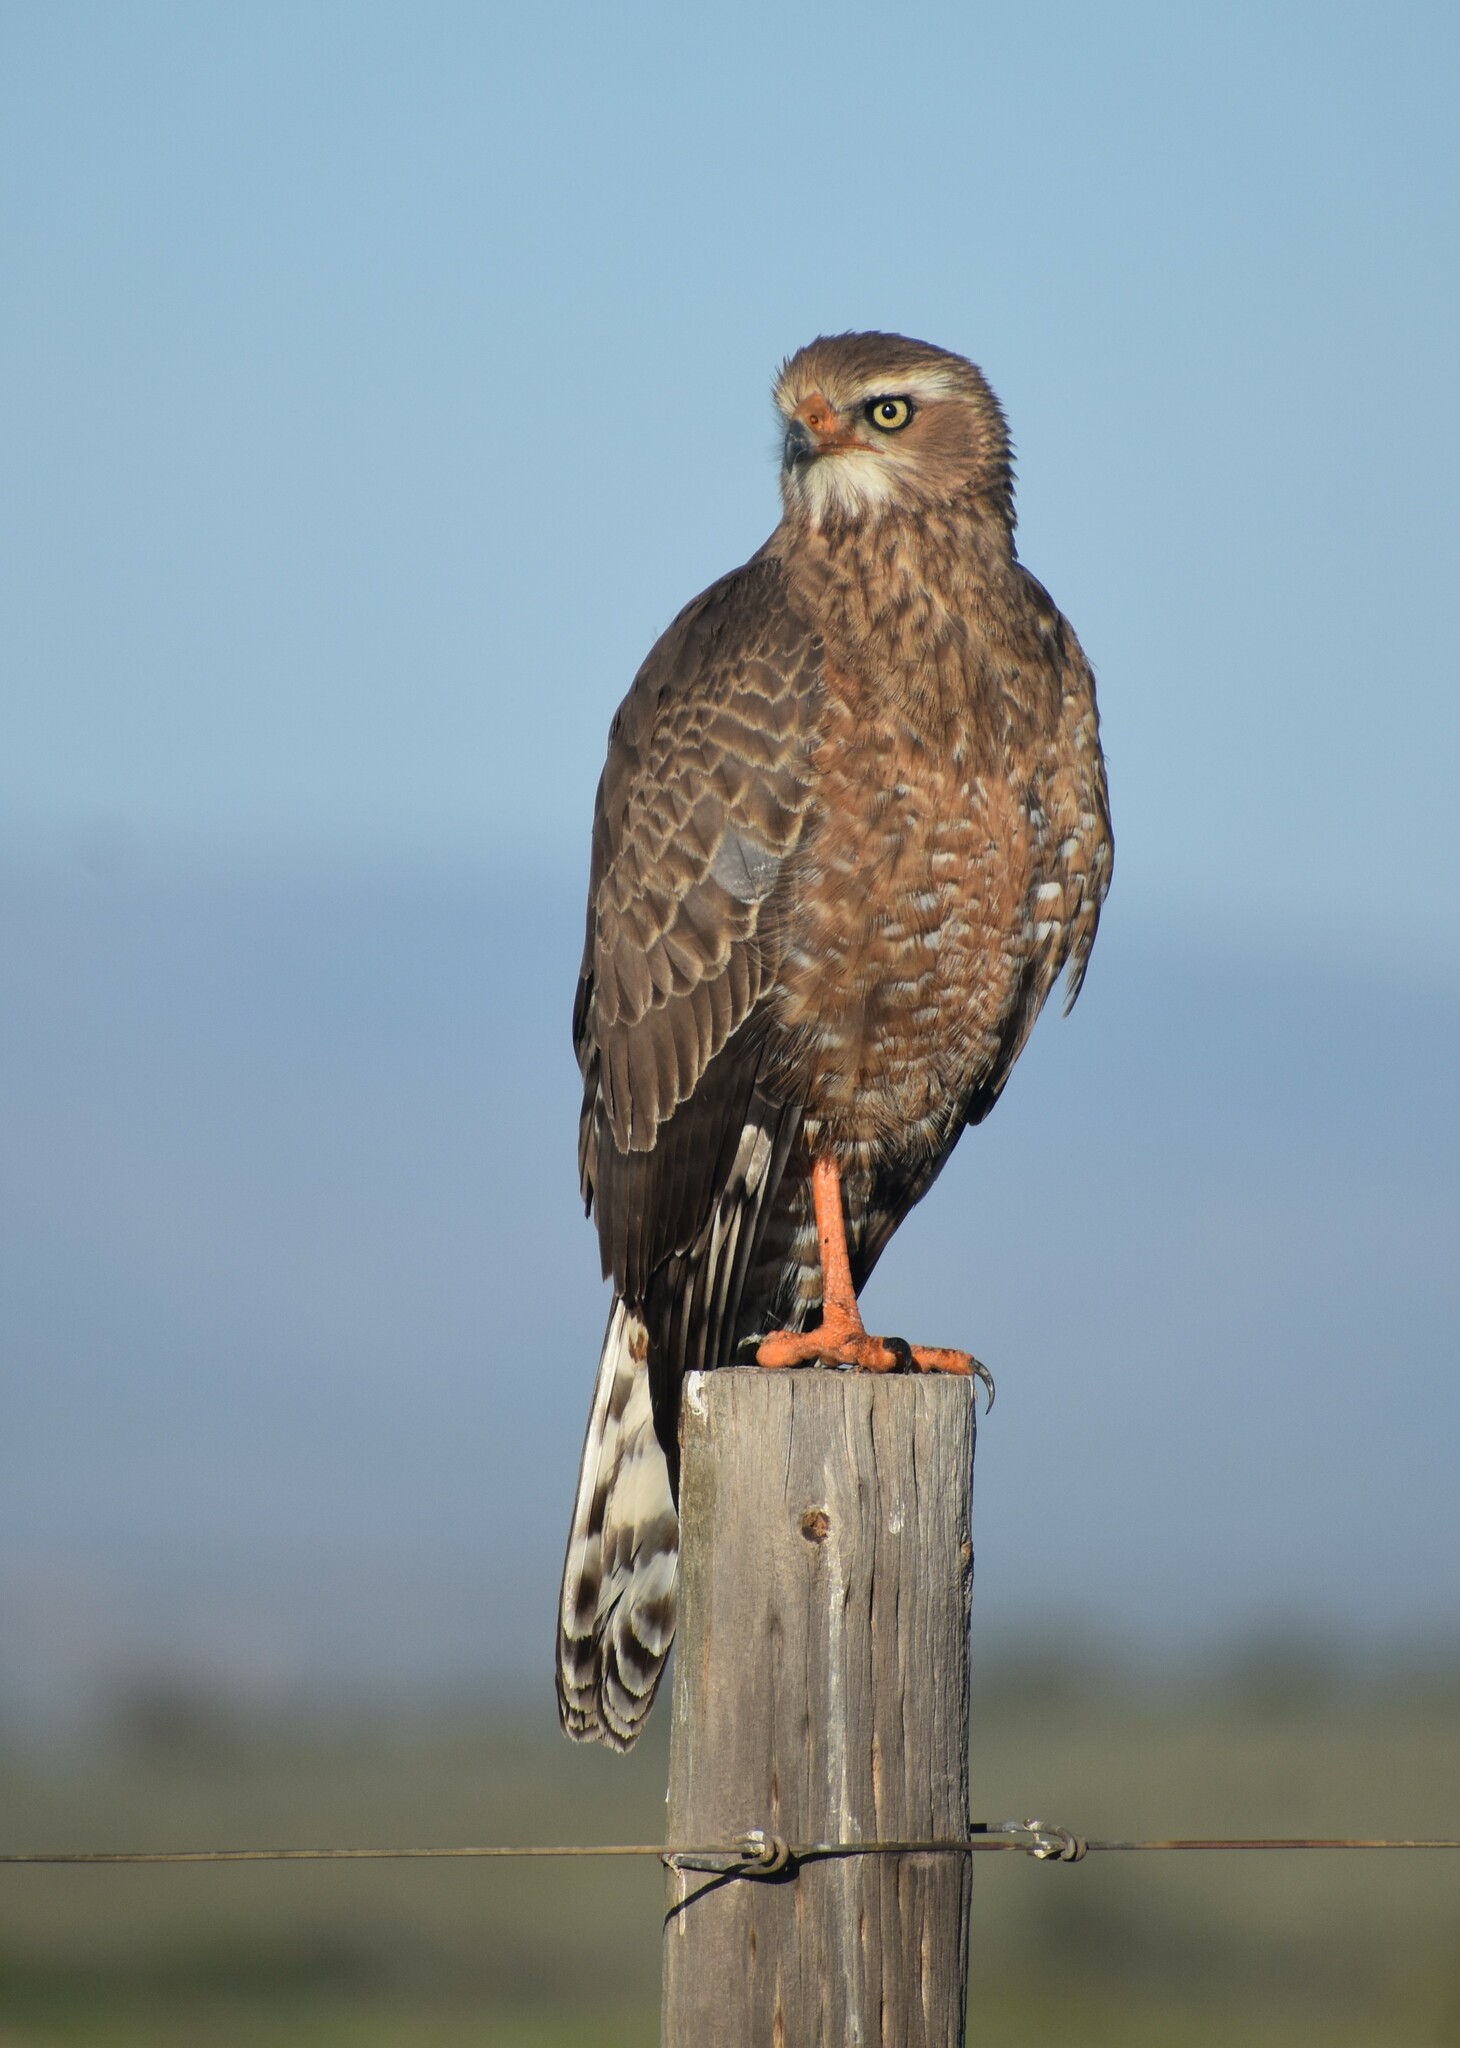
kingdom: Animalia
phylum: Chordata
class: Aves
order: Accipitriformes
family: Accipitridae
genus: Melierax
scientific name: Melierax canorus
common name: Pale chanting-goshawk
